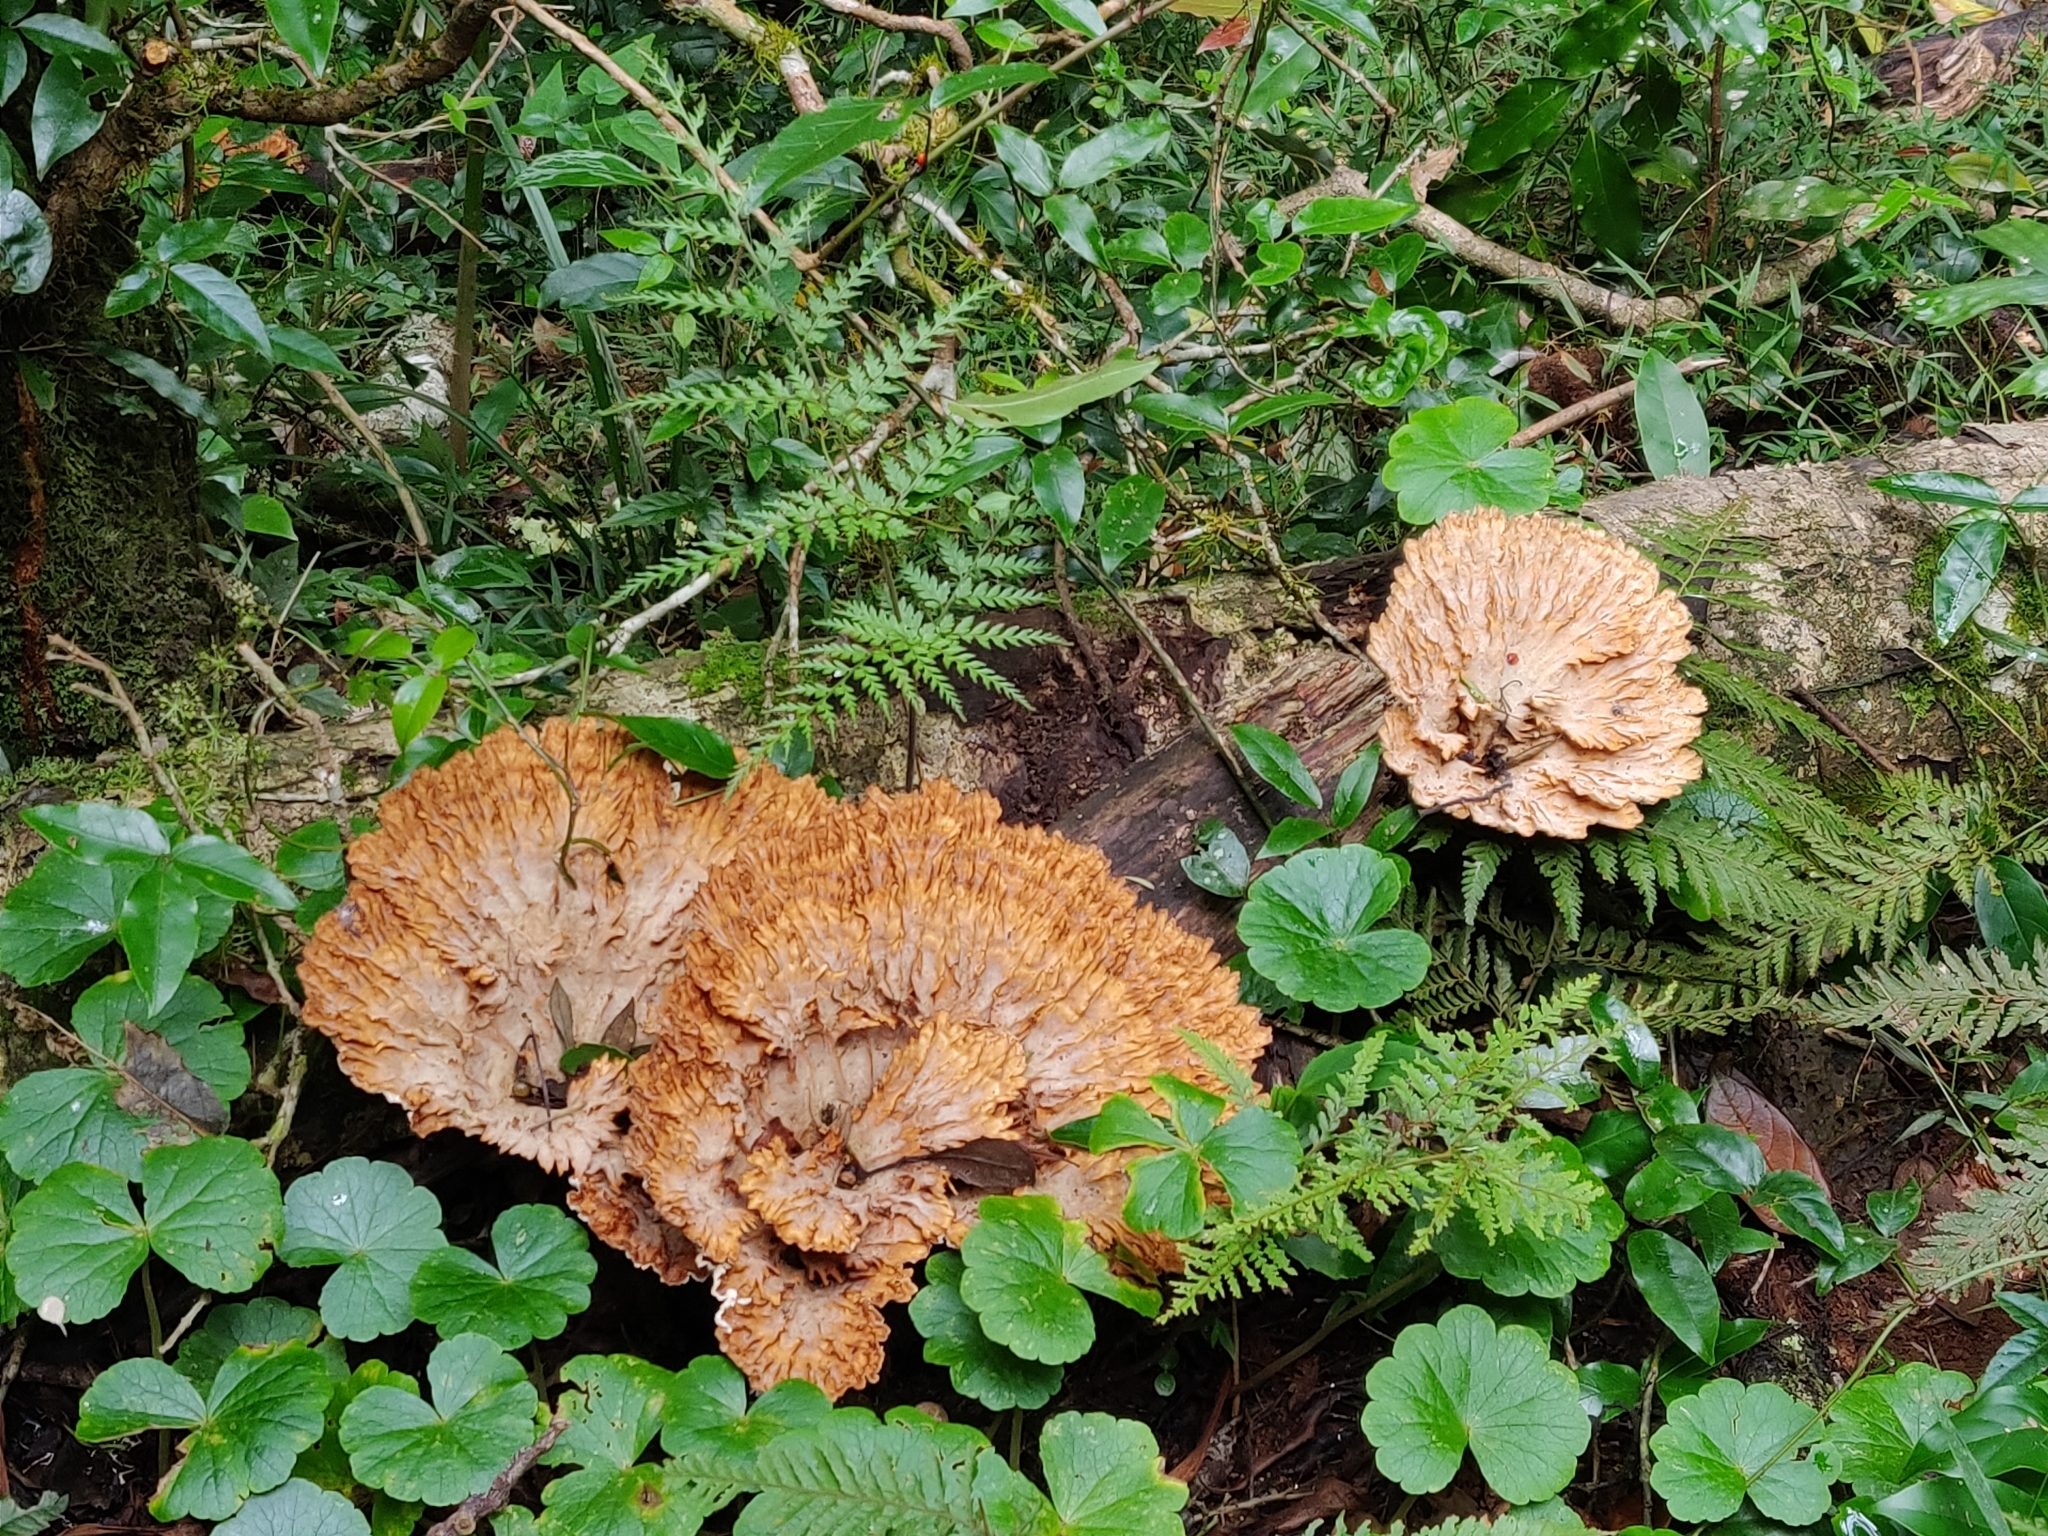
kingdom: Fungi
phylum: Basidiomycota
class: Agaricomycetes
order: Polyporales
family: Panaceae
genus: Cymatoderma
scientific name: Cymatoderma elegans
